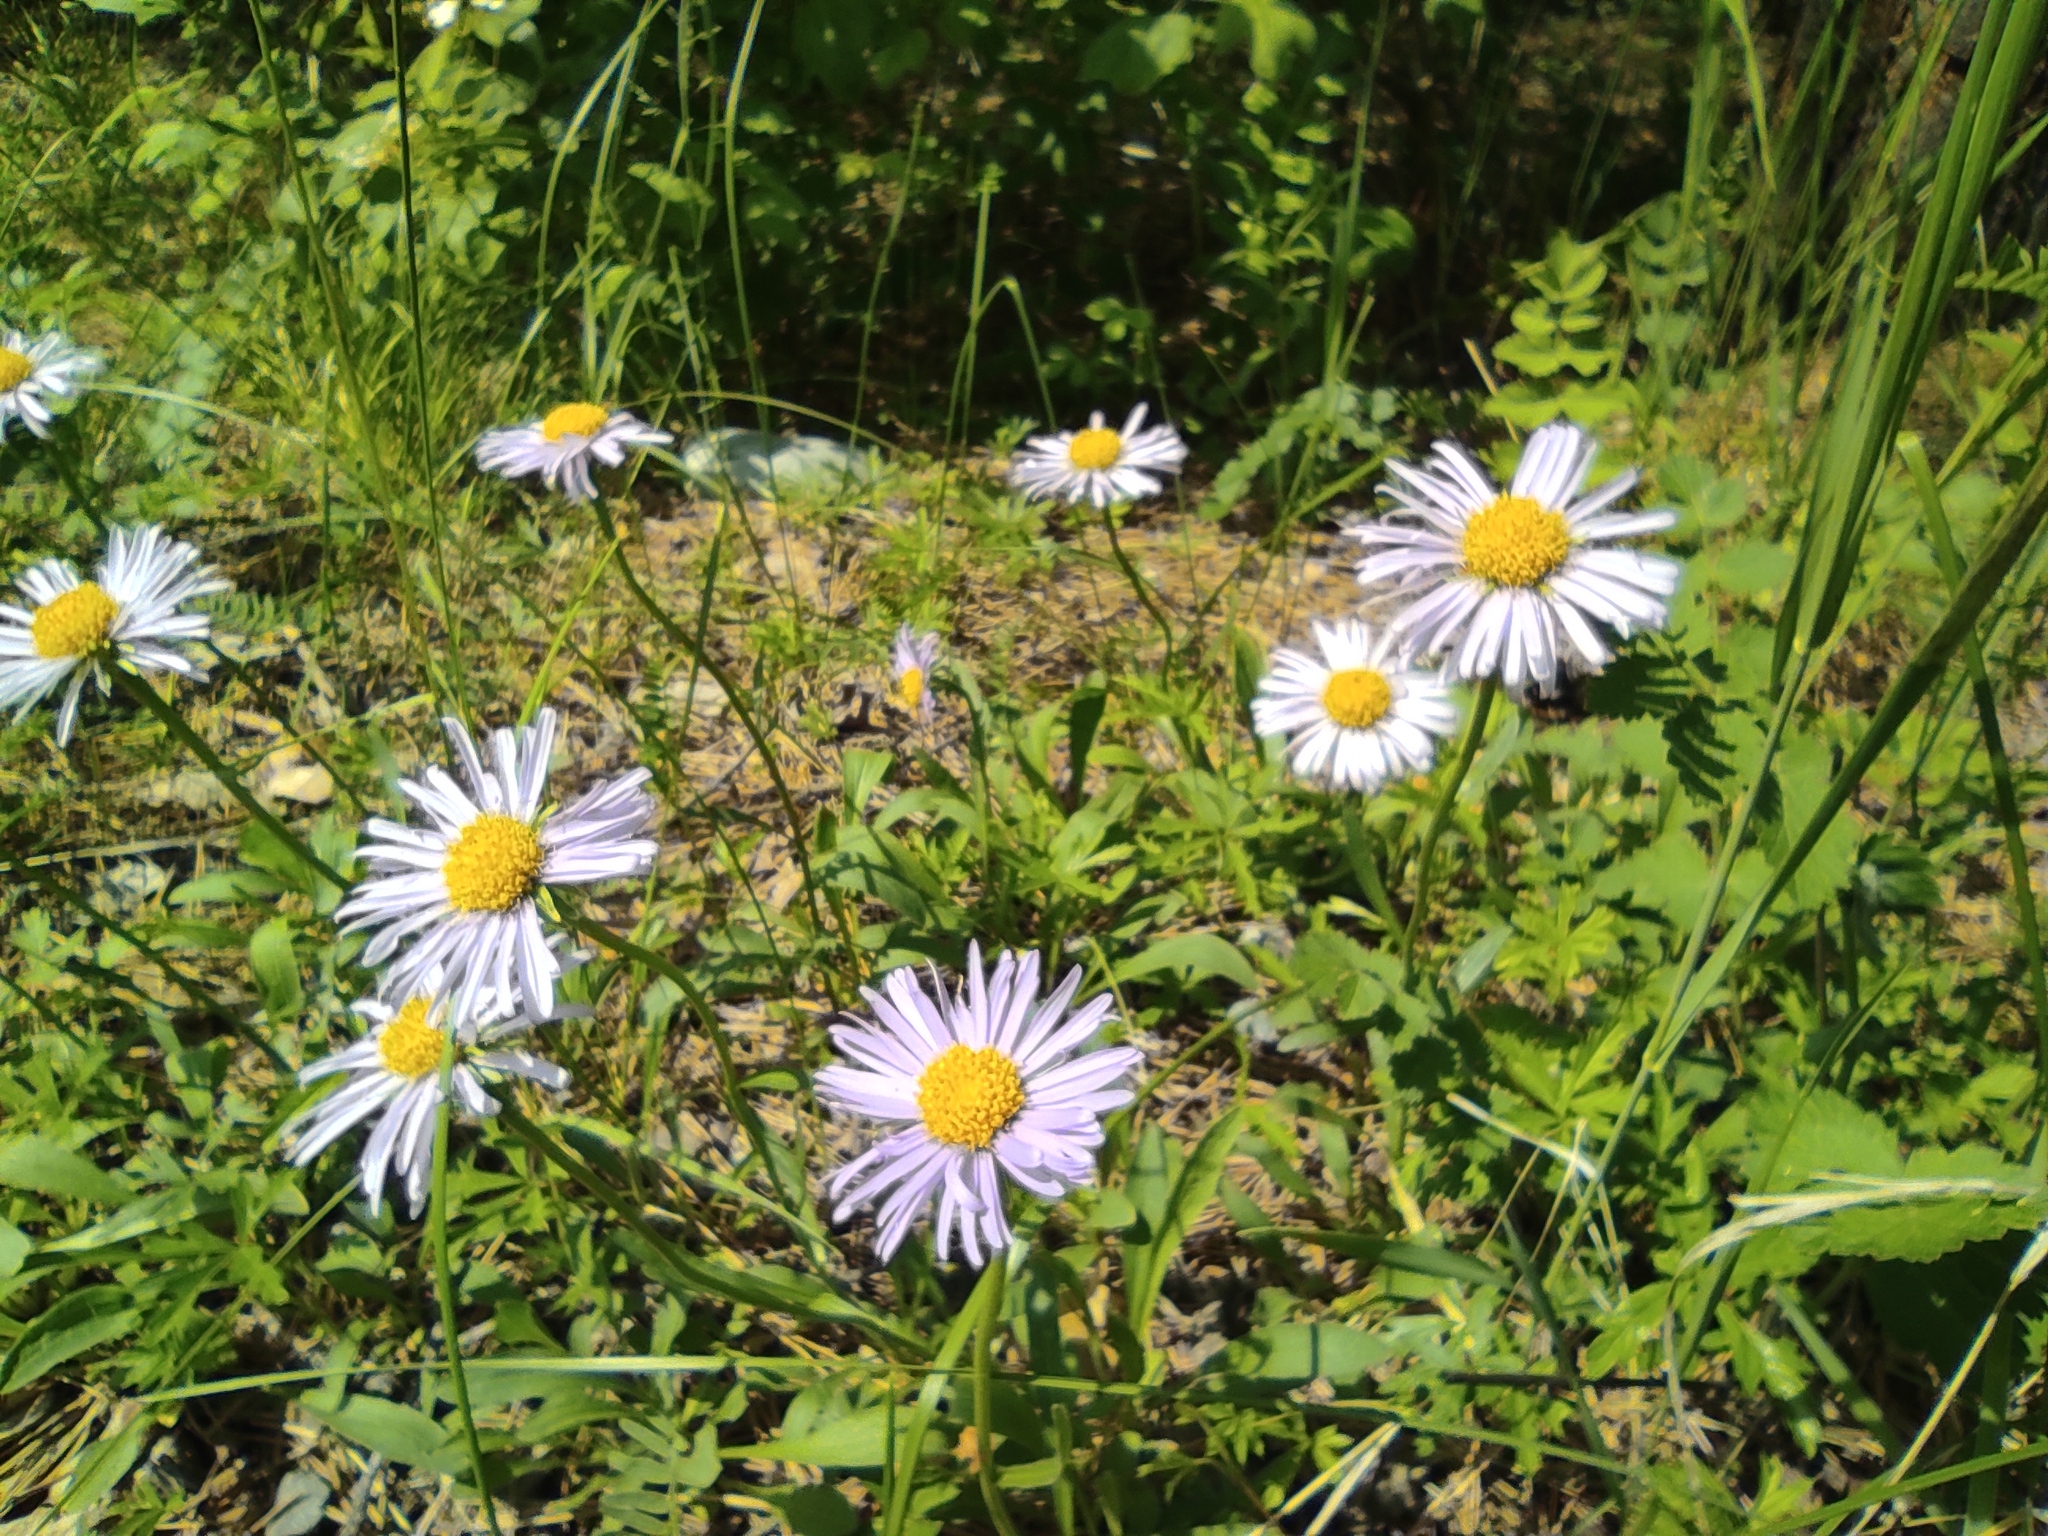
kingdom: Plantae
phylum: Tracheophyta
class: Magnoliopsida
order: Asterales
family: Asteraceae
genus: Aster
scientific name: Aster alpinus
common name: Alpine aster
